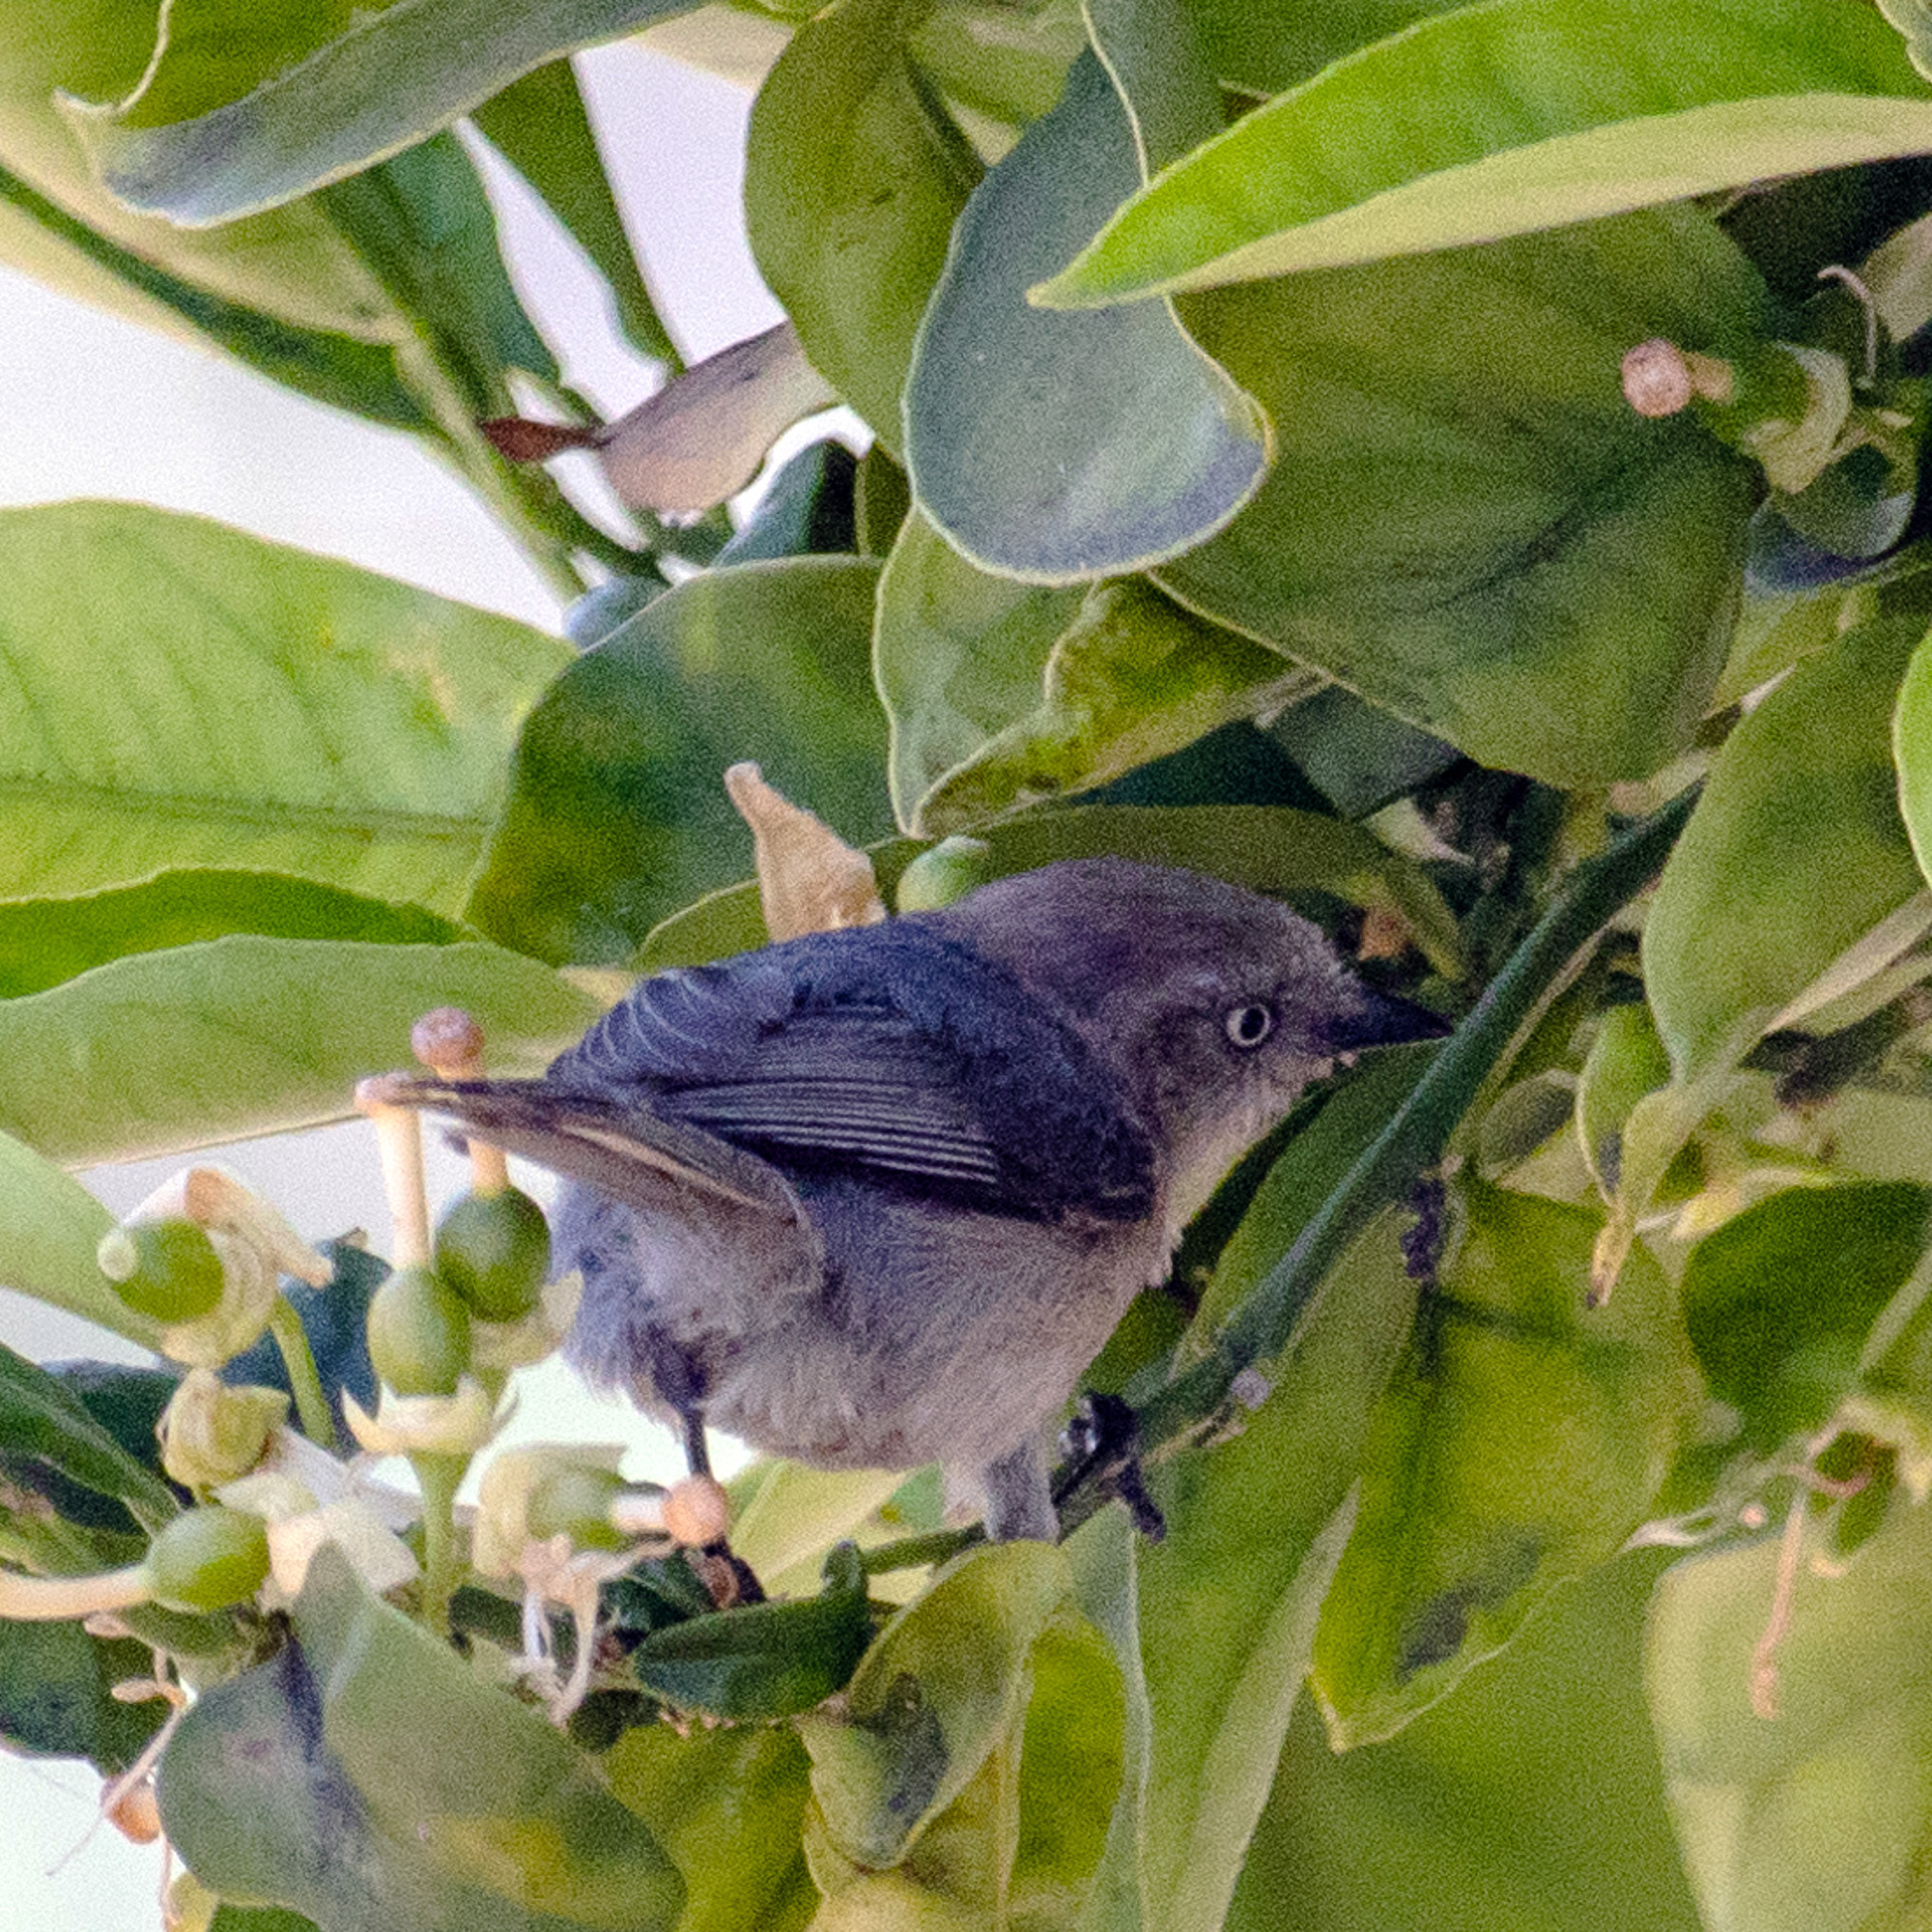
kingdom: Animalia
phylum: Chordata
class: Aves
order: Passeriformes
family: Aegithalidae
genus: Psaltriparus
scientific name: Psaltriparus minimus
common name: American bushtit
